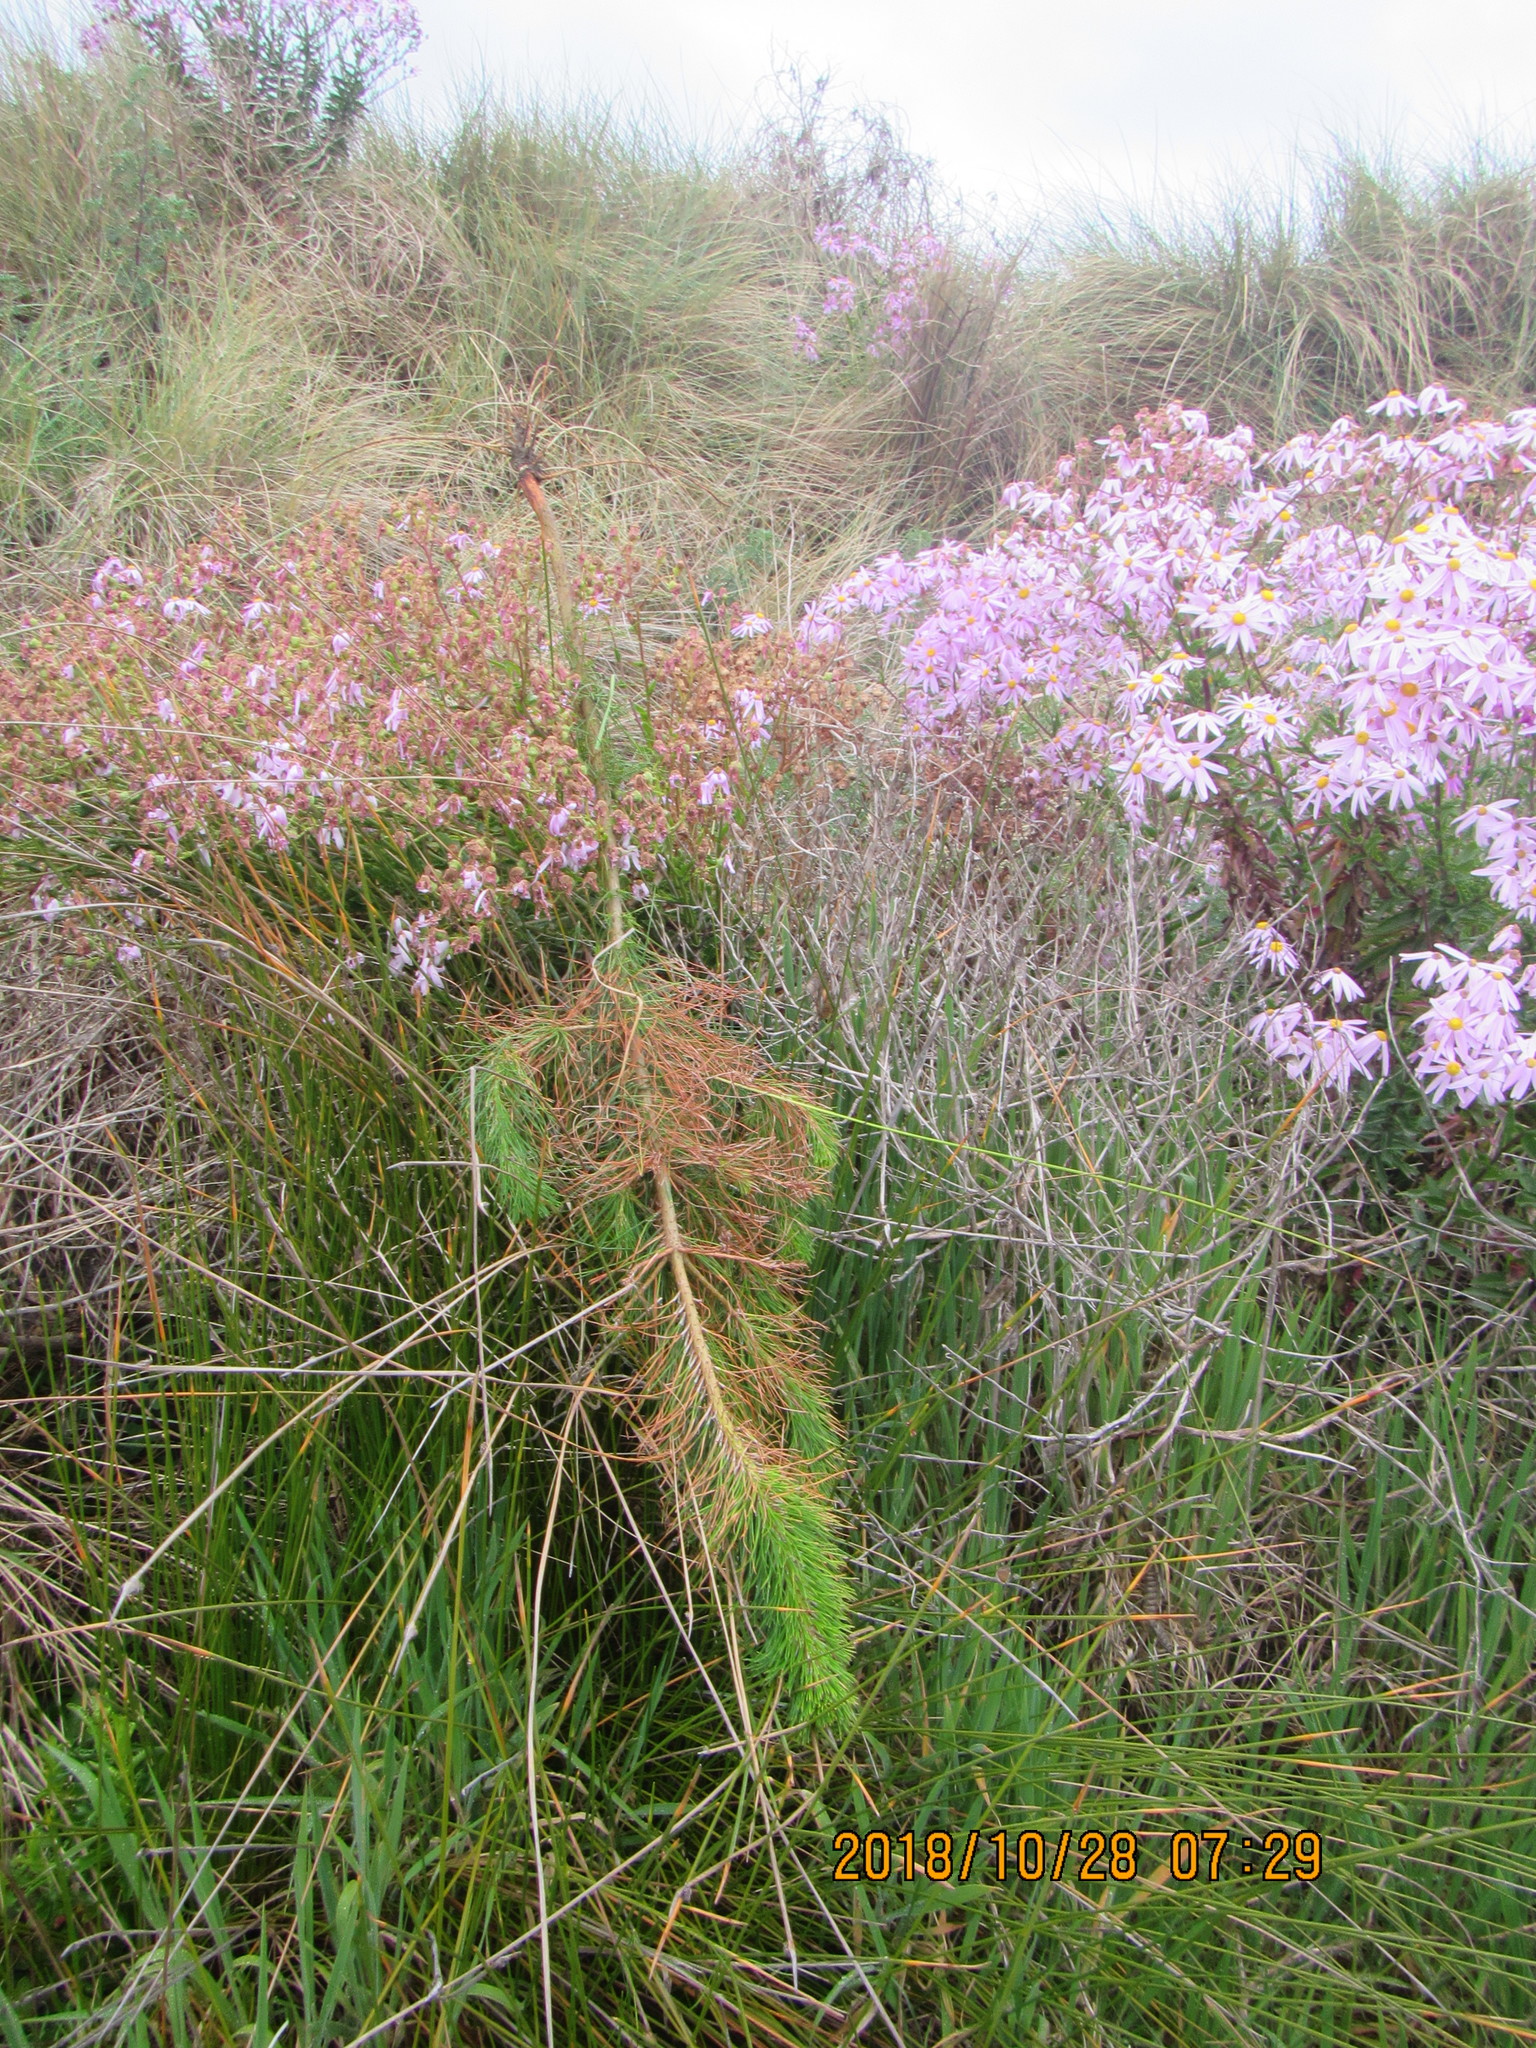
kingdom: Plantae
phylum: Tracheophyta
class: Pinopsida
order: Pinales
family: Pinaceae
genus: Pinus
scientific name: Pinus radiata
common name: Monterey pine
